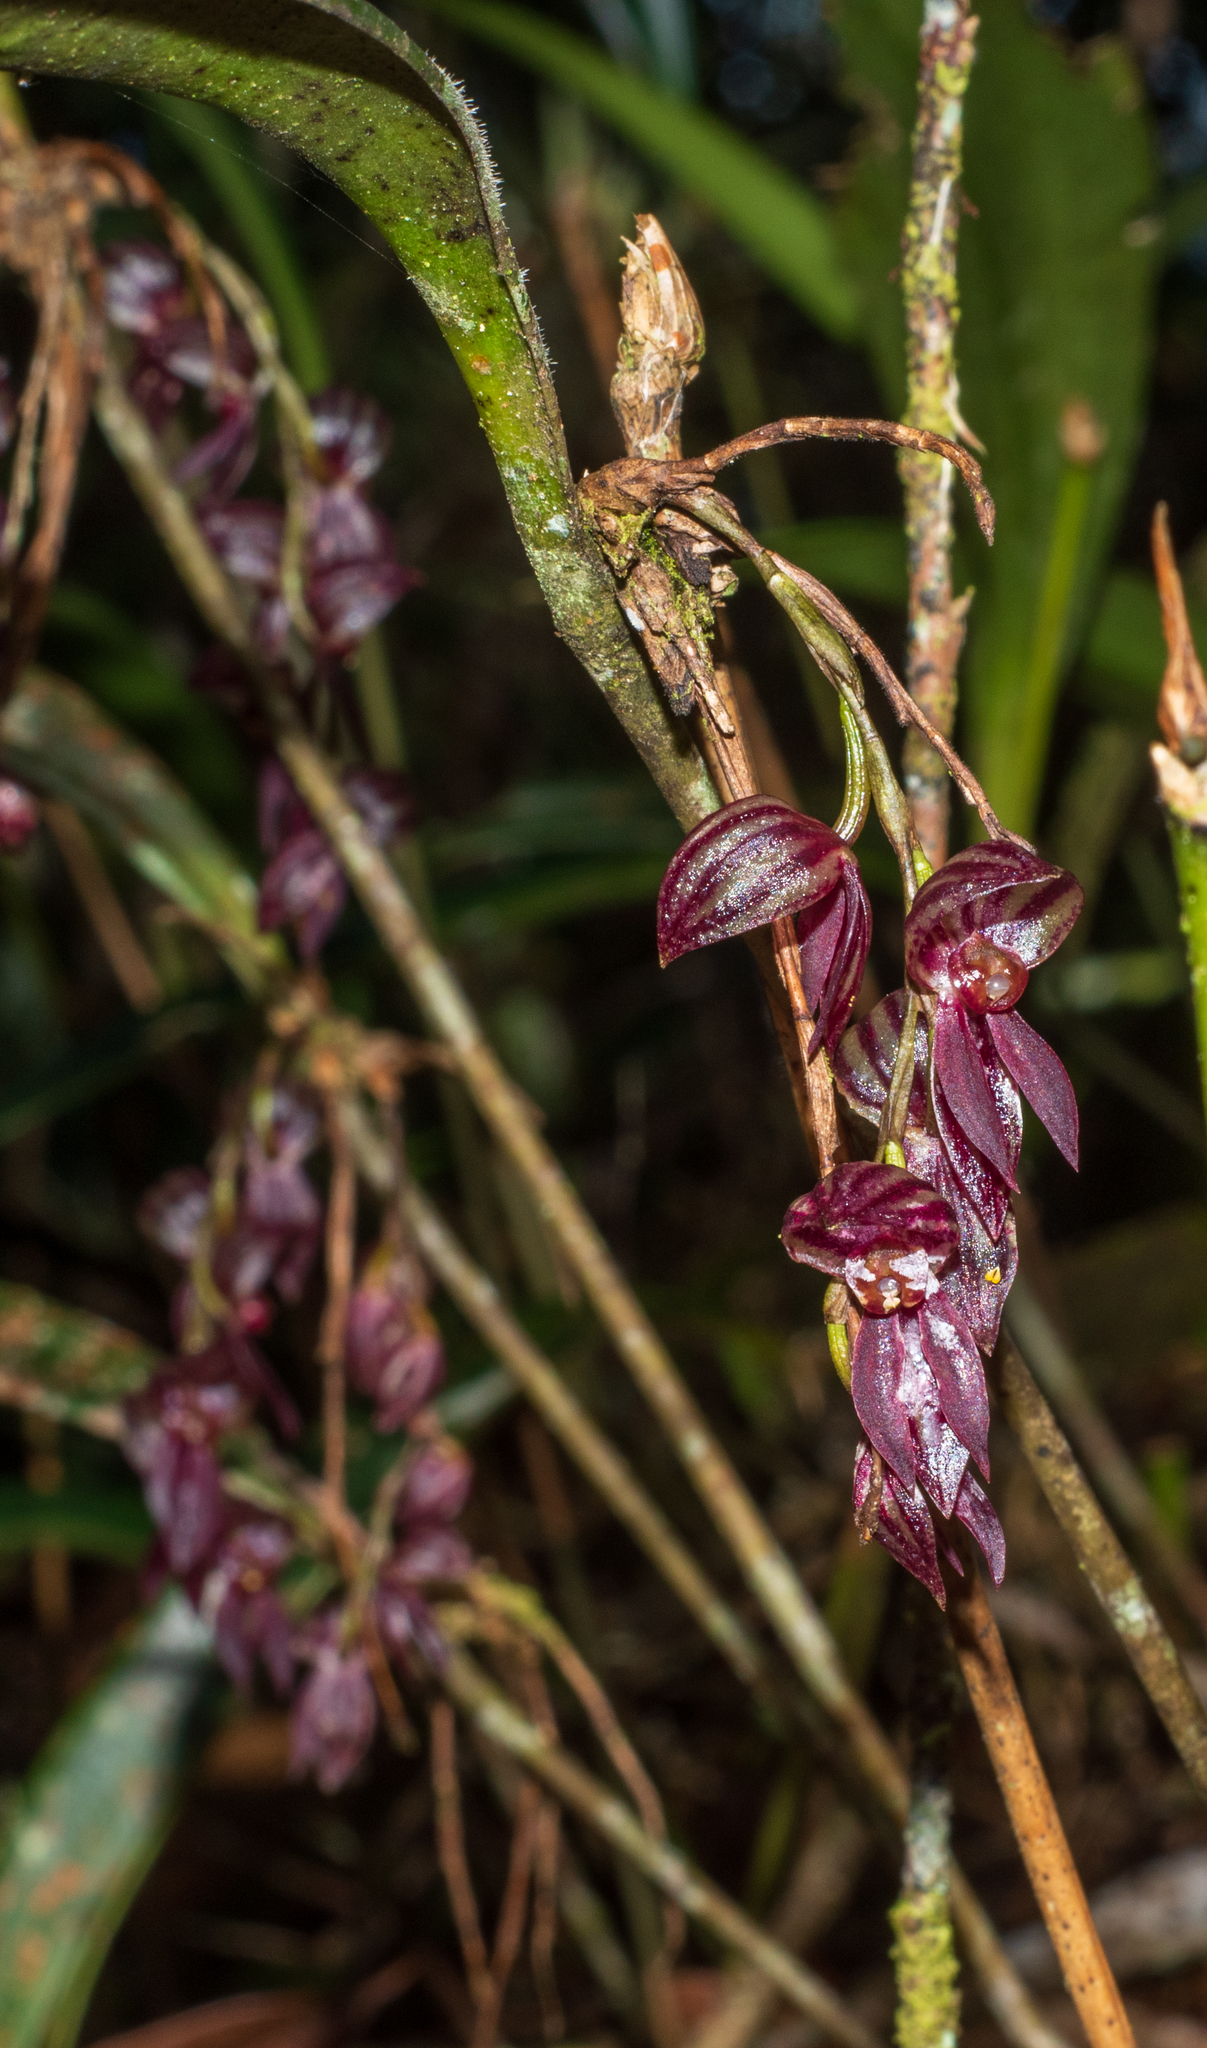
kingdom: Plantae
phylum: Tracheophyta
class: Liliopsida
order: Asparagales
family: Orchidaceae
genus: Pleurothallis
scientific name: Pleurothallis lindenii
